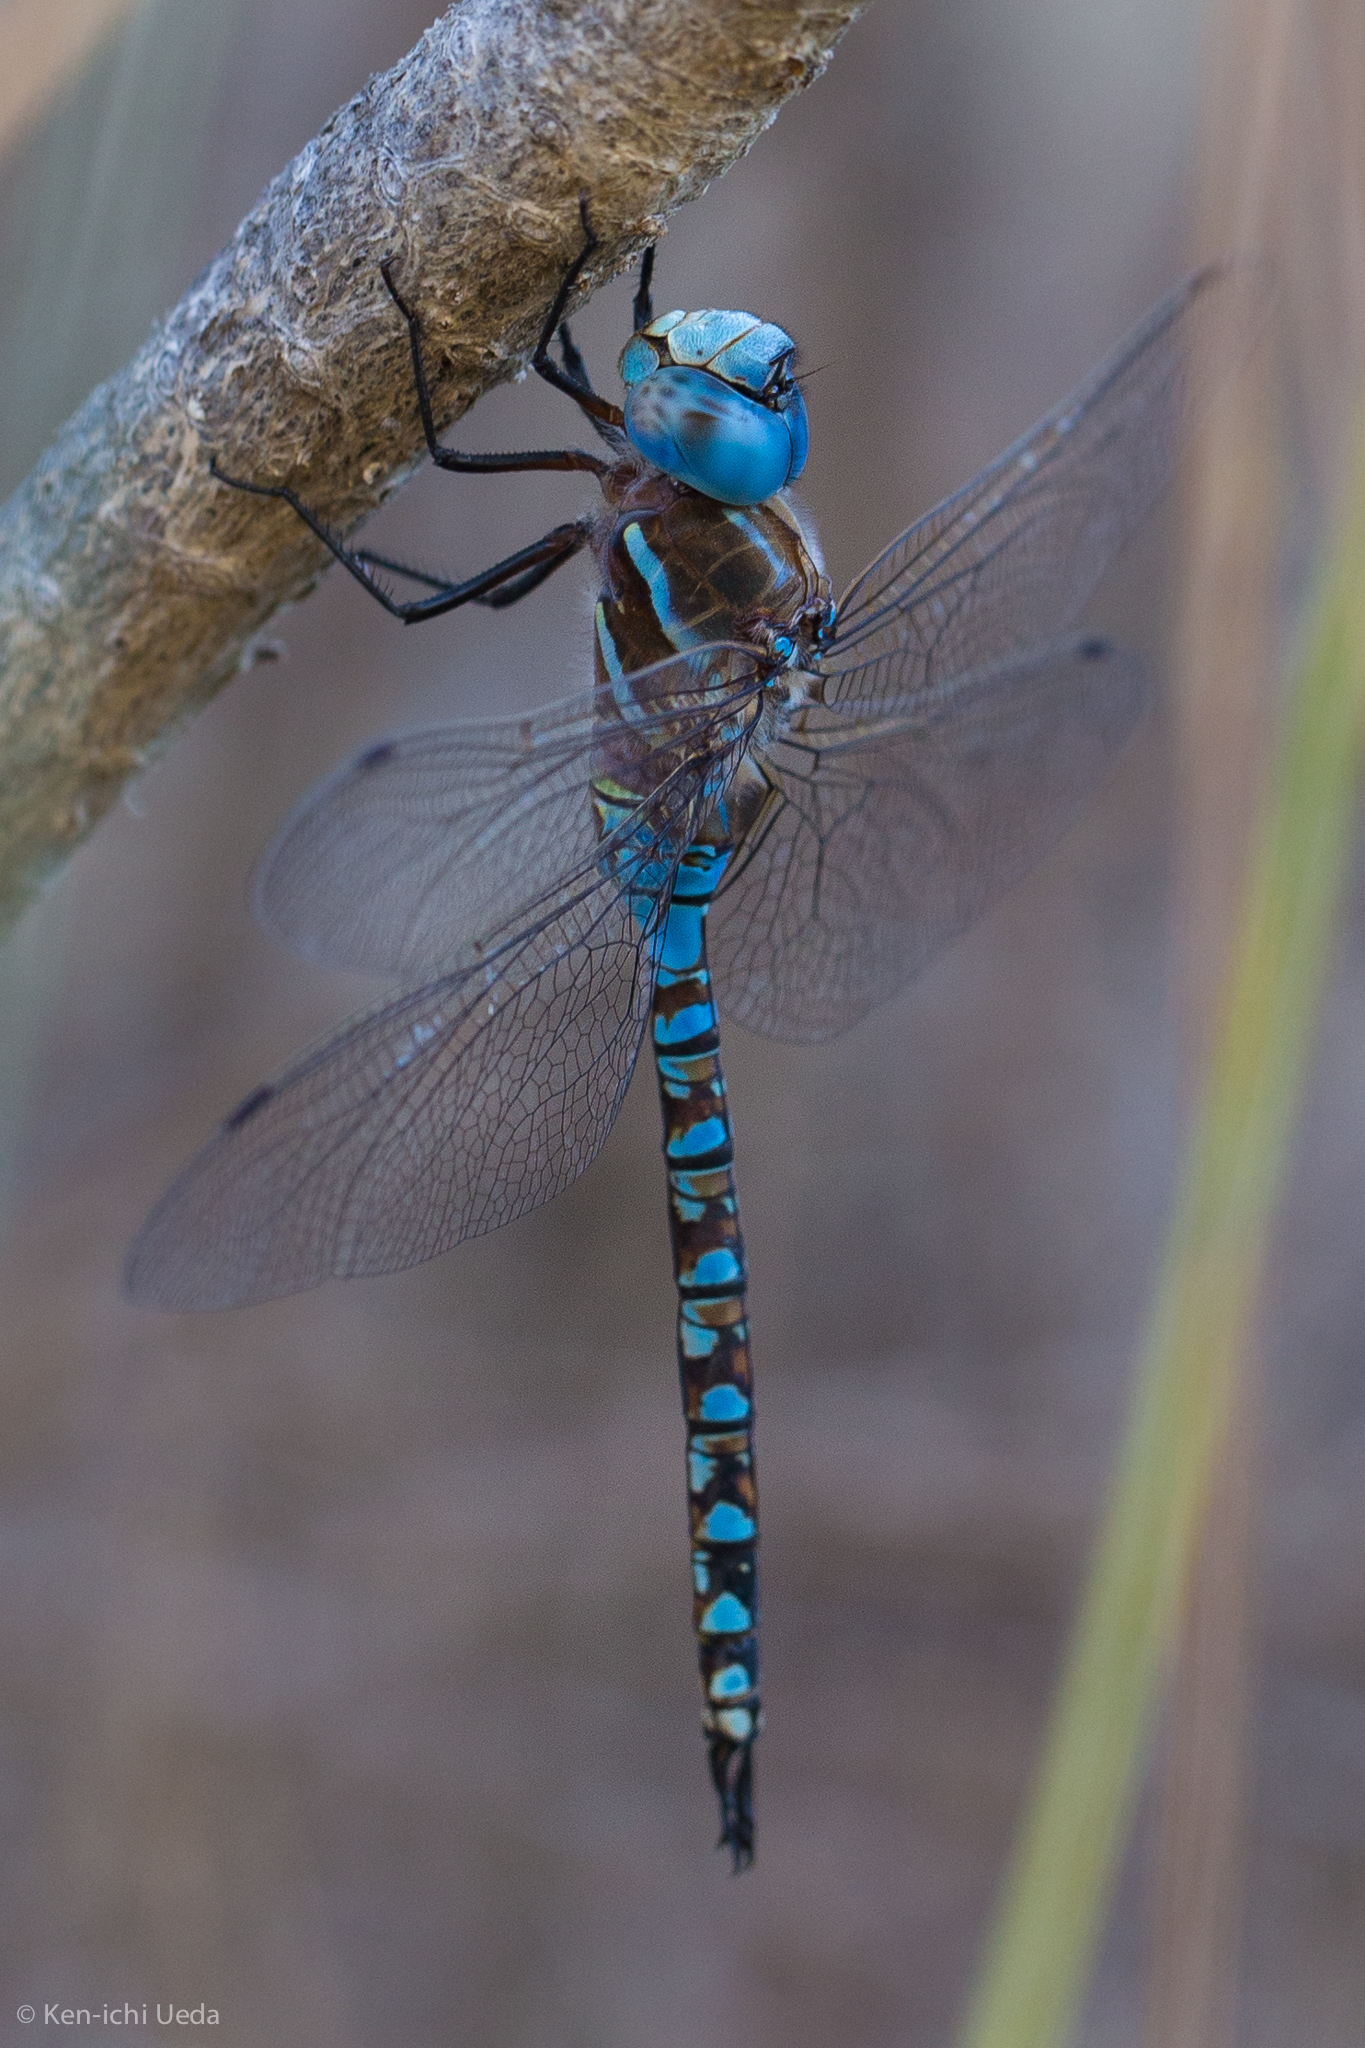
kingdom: Animalia
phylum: Arthropoda
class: Insecta
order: Odonata
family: Aeshnidae
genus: Rhionaeschna
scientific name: Rhionaeschna multicolor
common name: Blue-eyed darner
